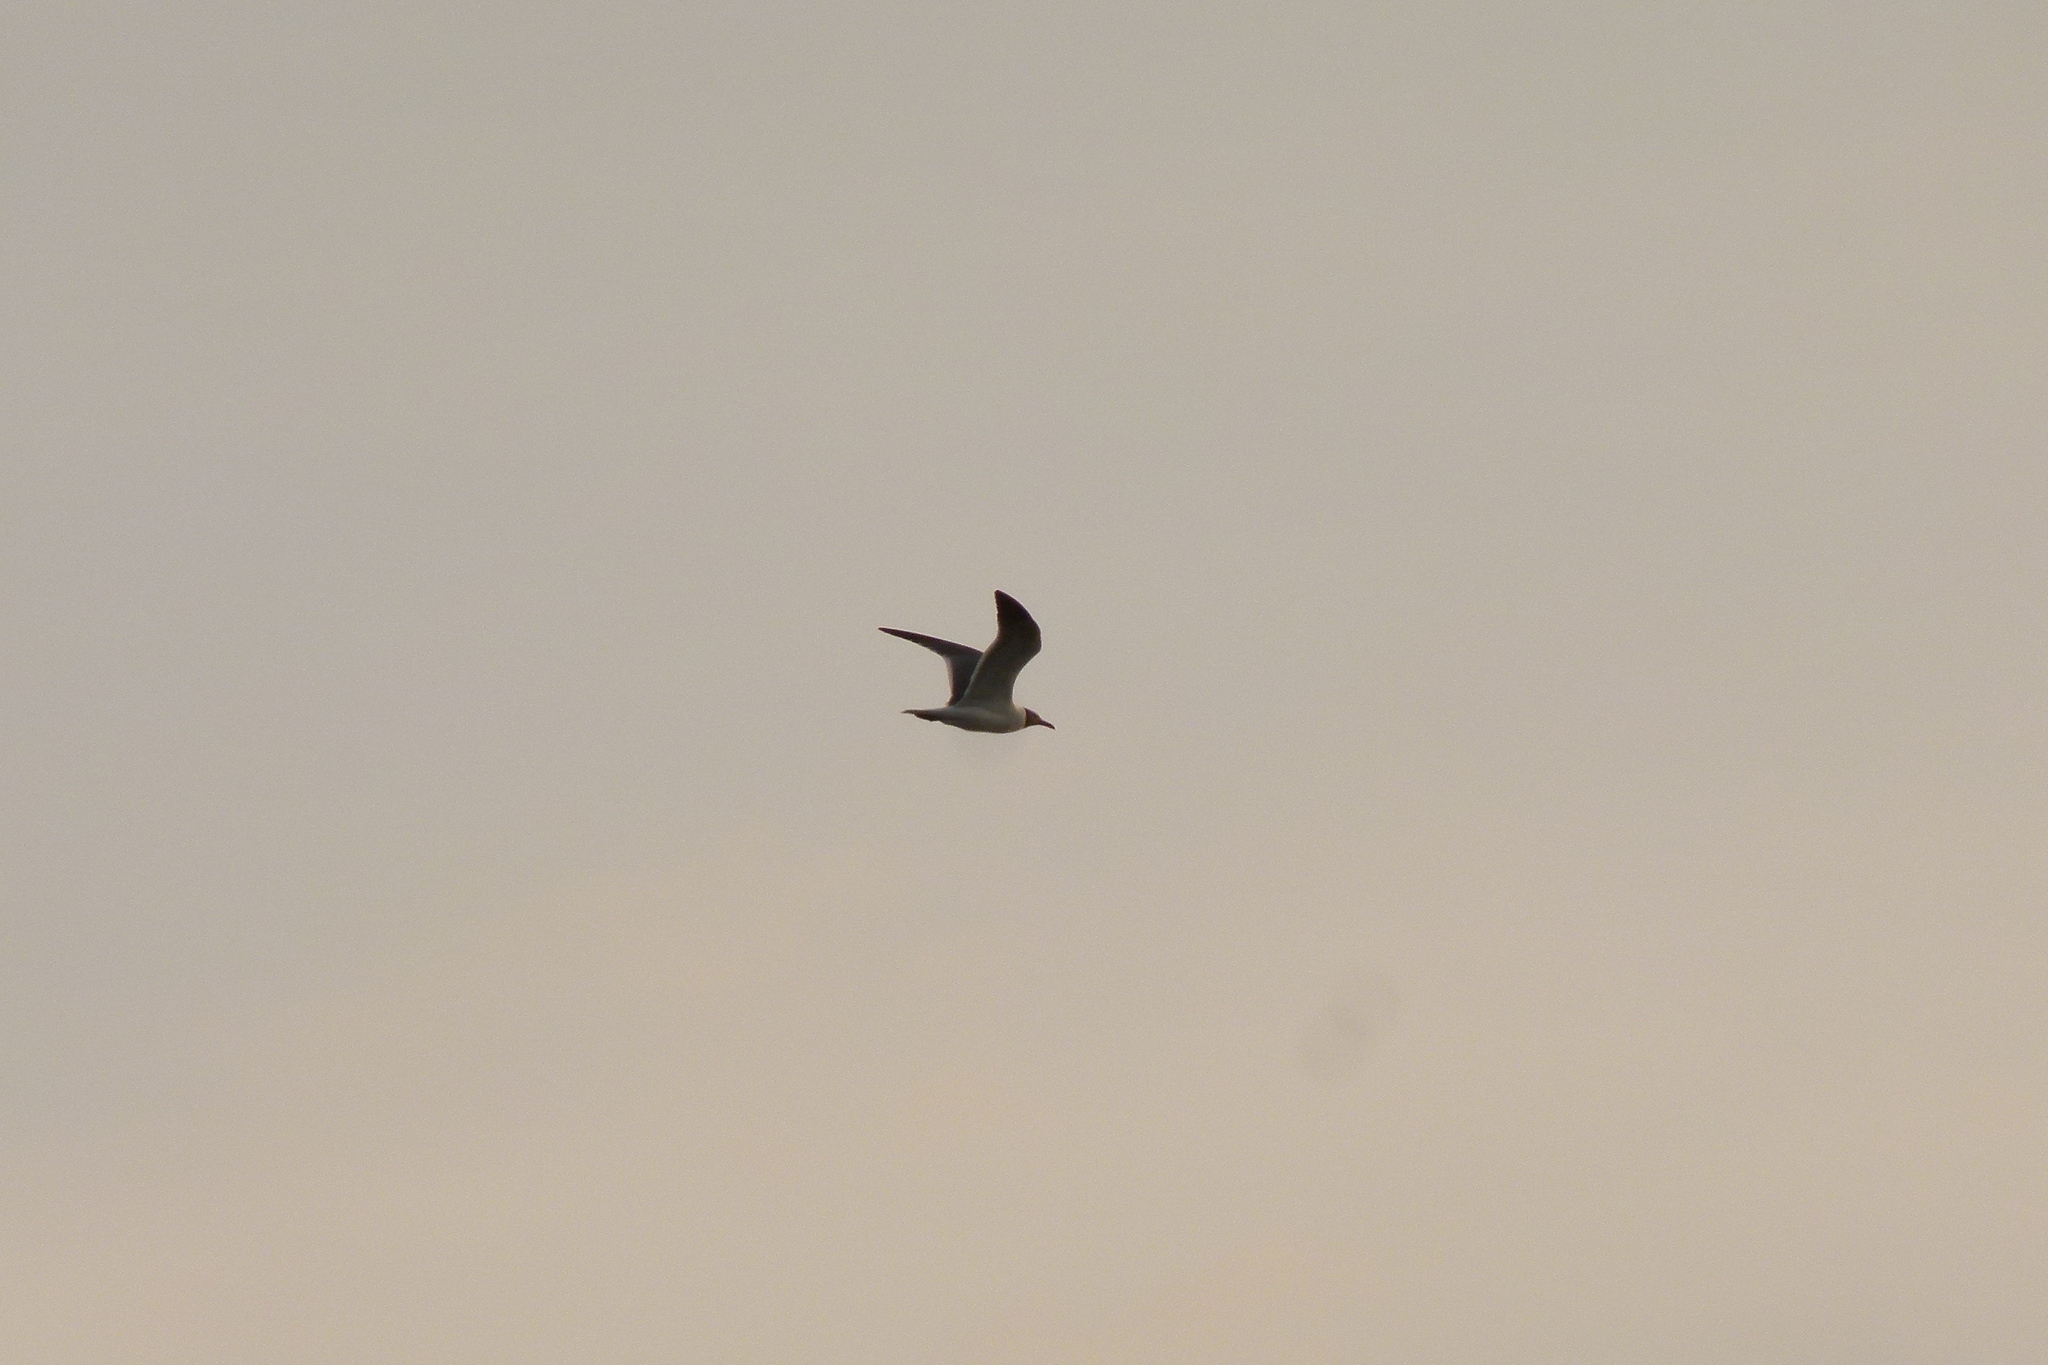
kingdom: Animalia
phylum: Chordata
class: Aves
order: Charadriiformes
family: Laridae
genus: Leucophaeus
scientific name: Leucophaeus atricilla
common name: Laughing gull
